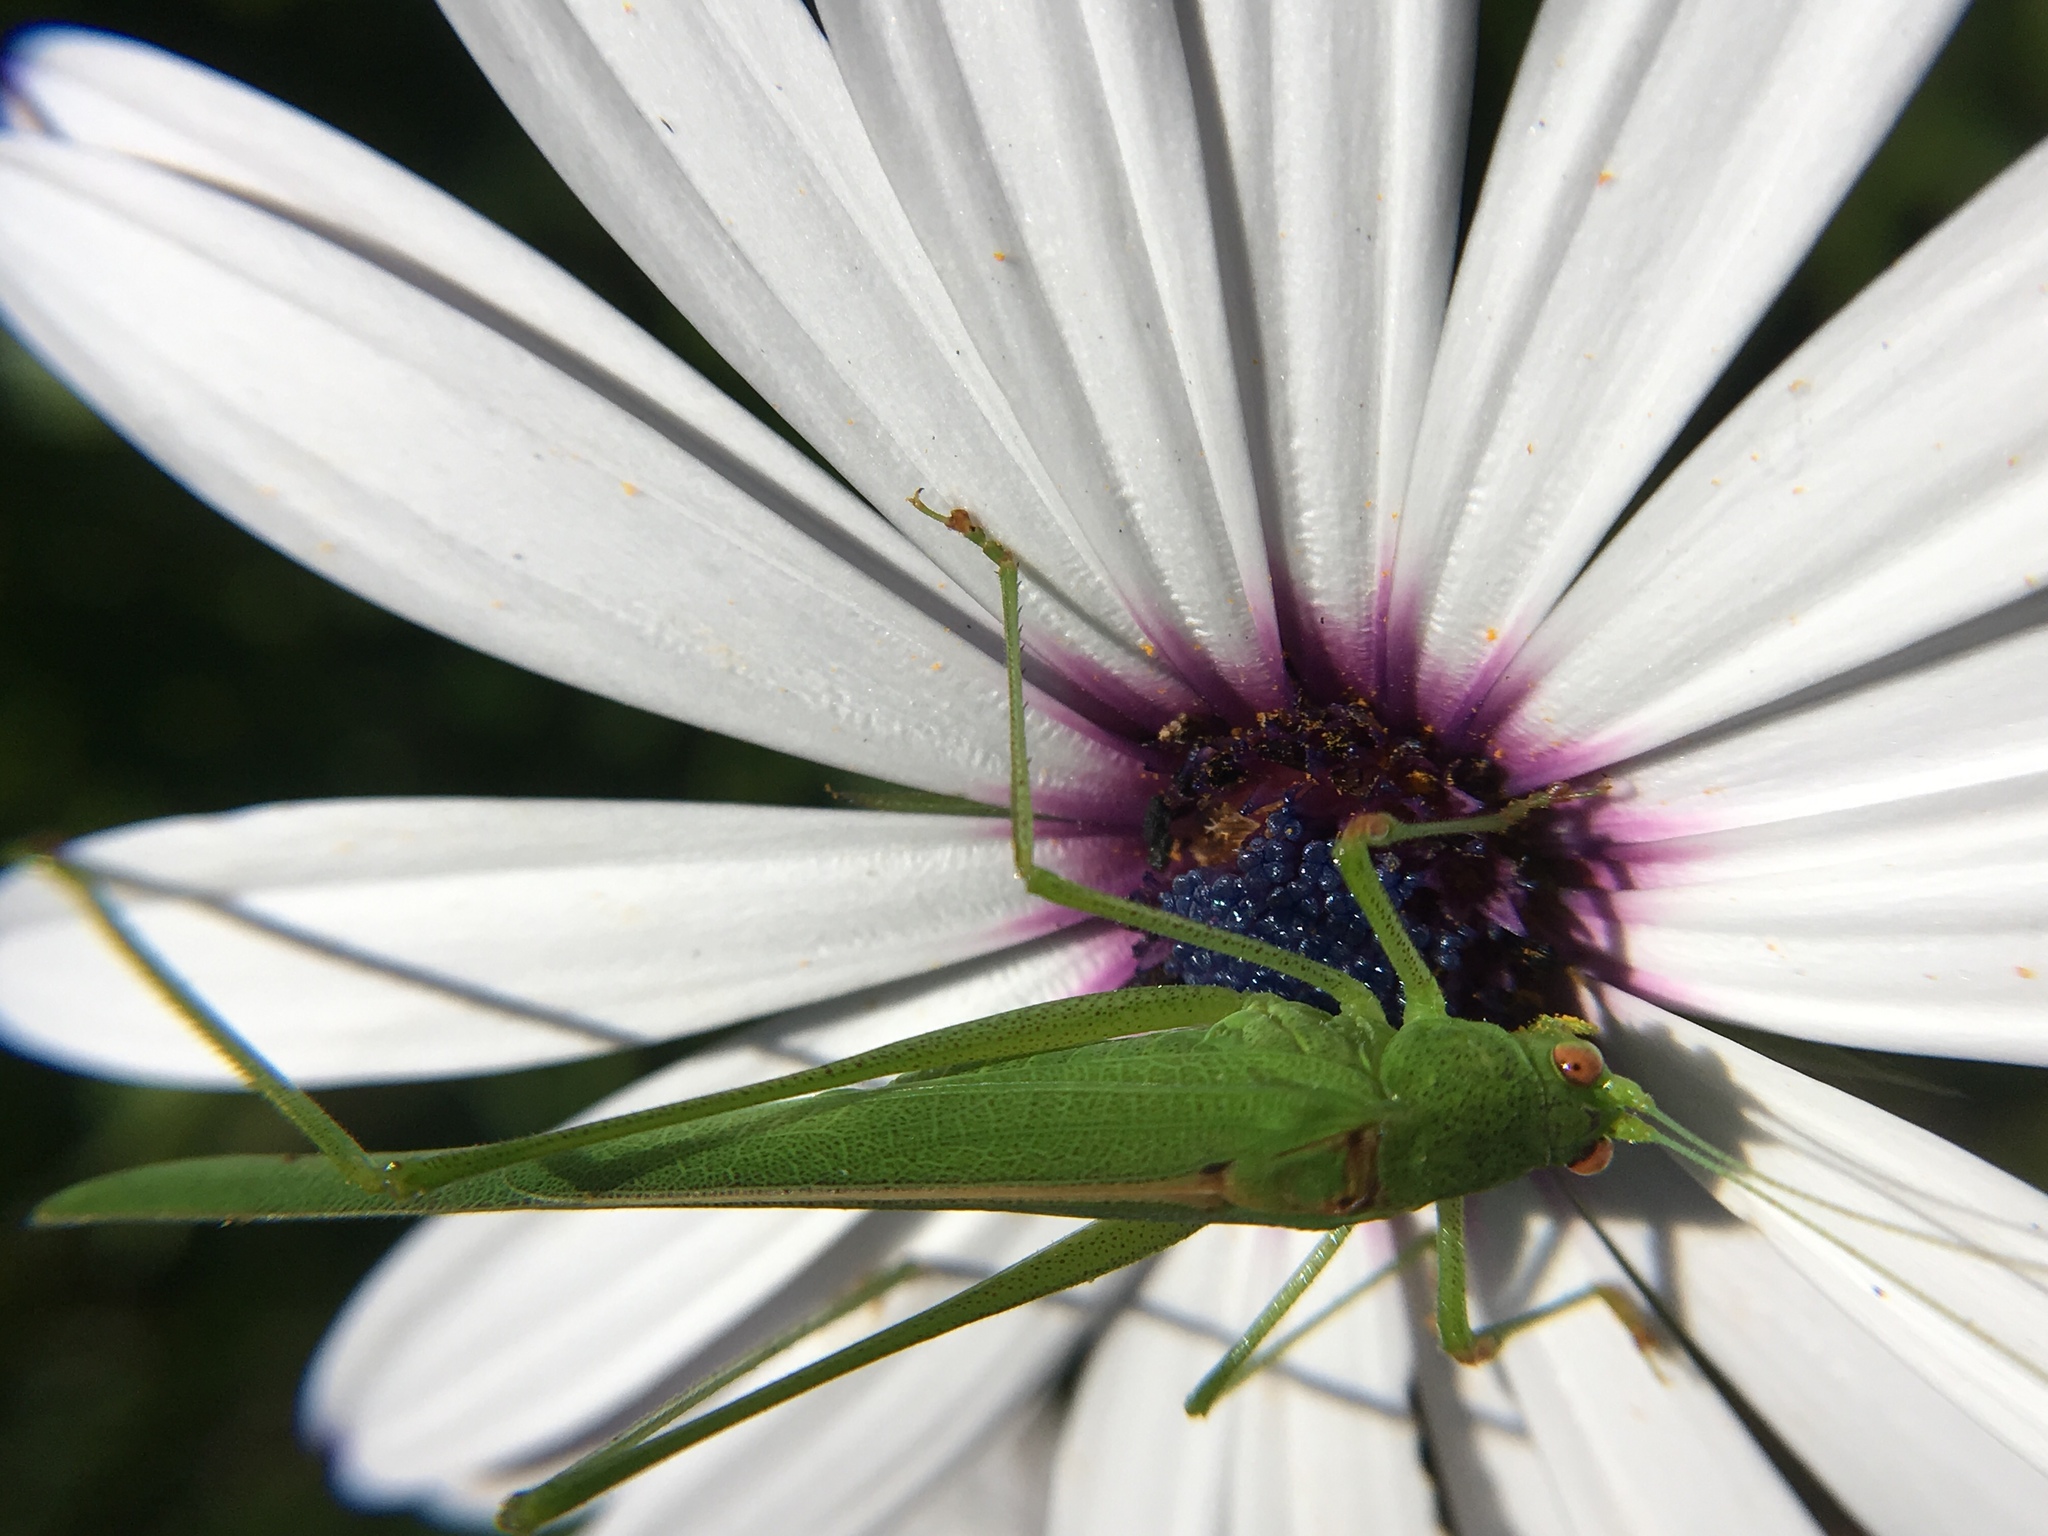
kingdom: Animalia
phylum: Arthropoda
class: Insecta
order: Orthoptera
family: Tettigoniidae
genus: Phaneroptera
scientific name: Phaneroptera sparsa
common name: Sickle-bearing leaf katydid
